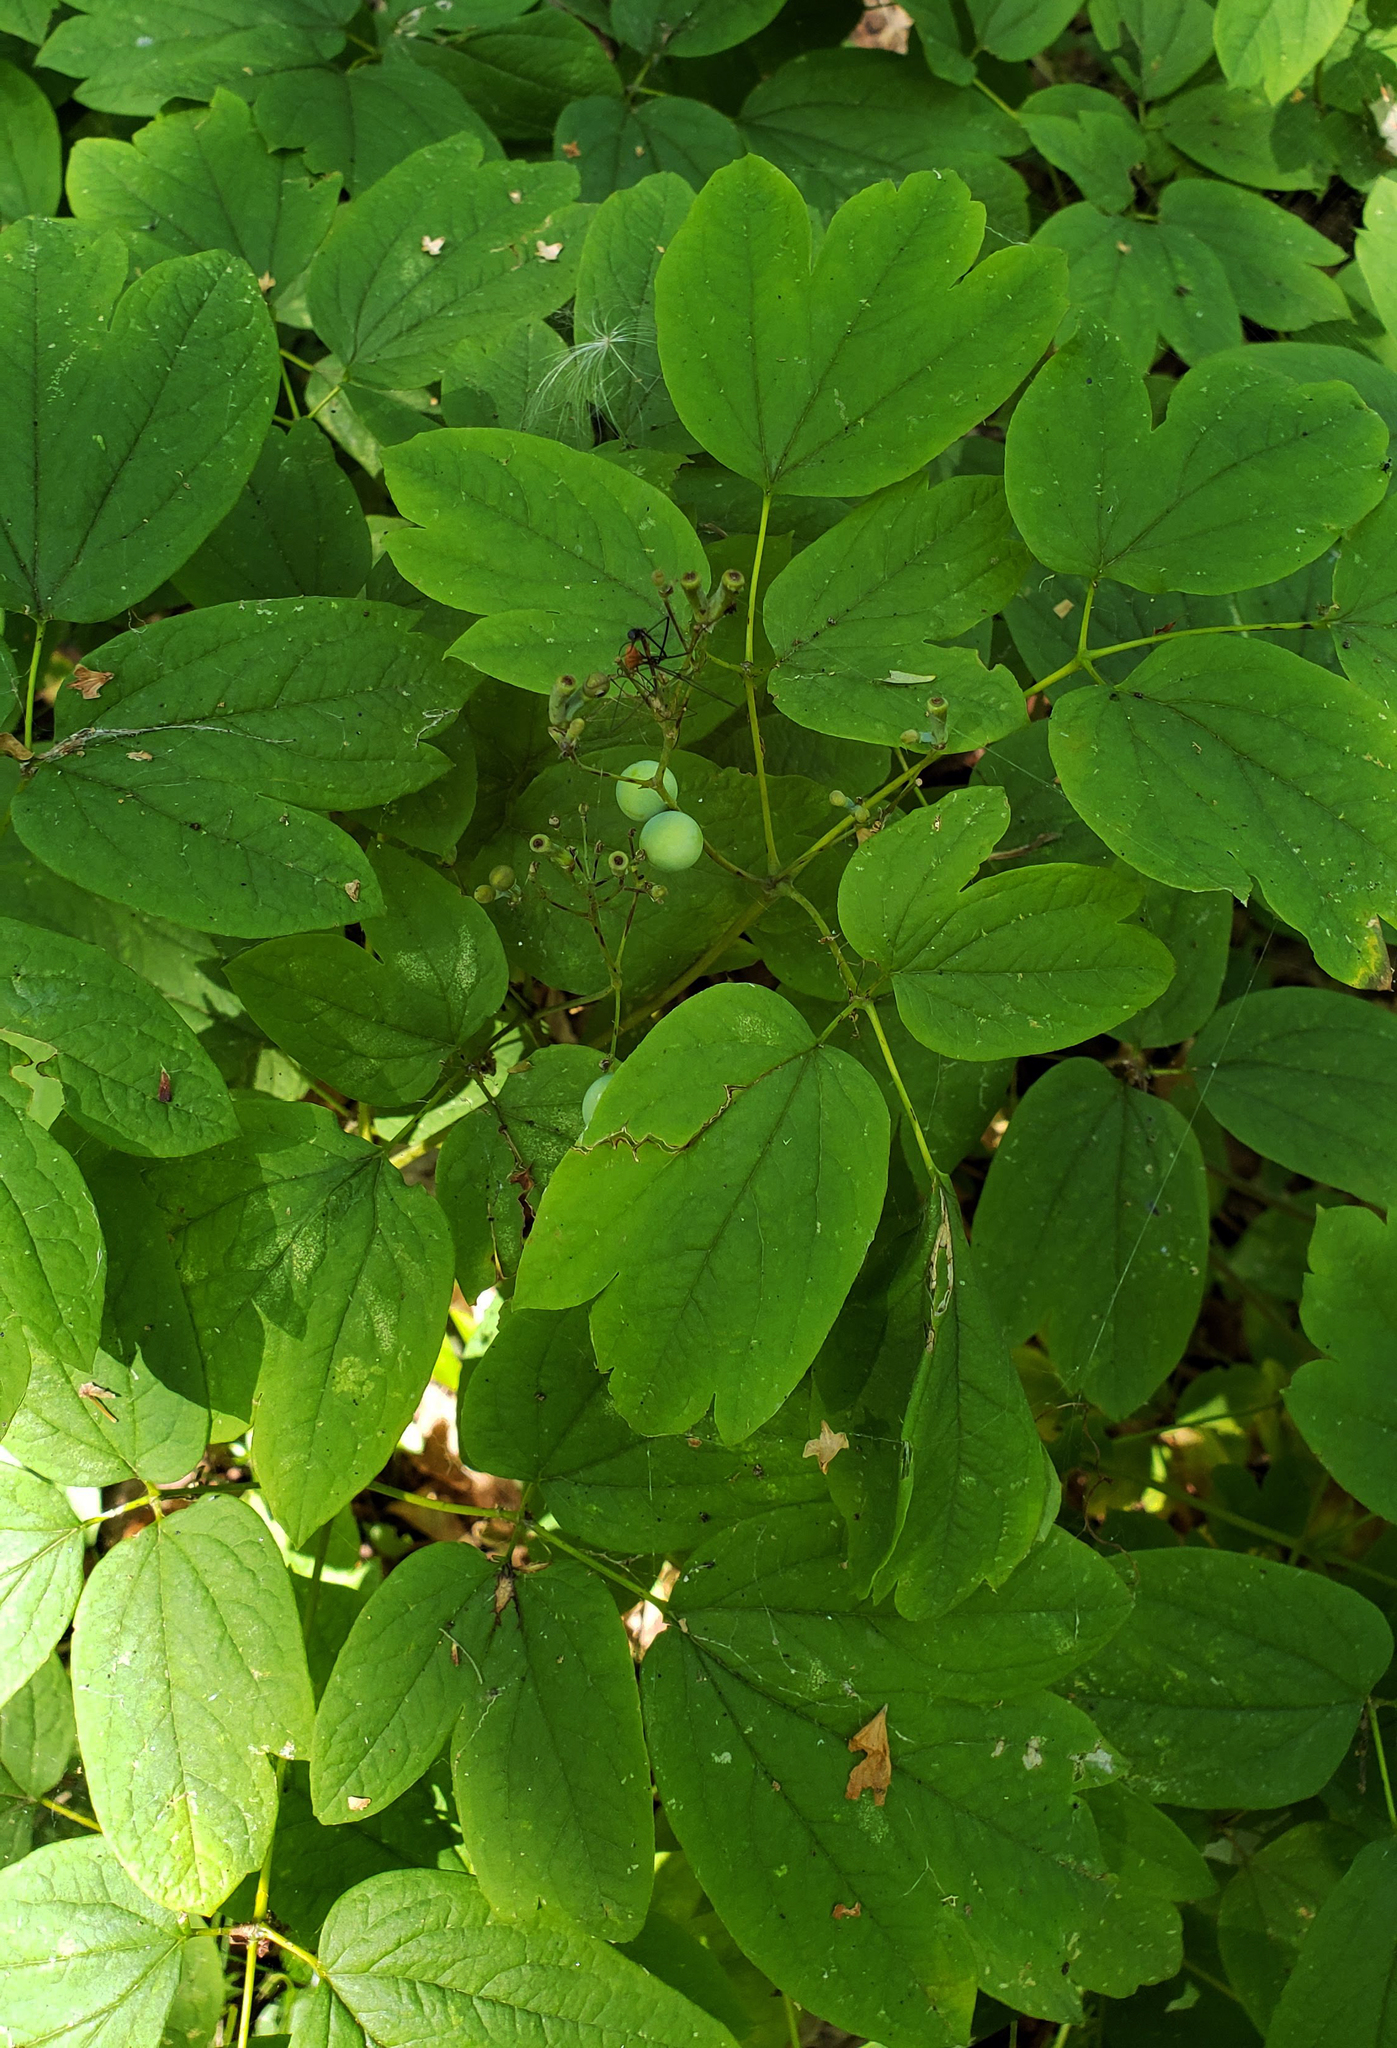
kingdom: Plantae
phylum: Tracheophyta
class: Magnoliopsida
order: Ranunculales
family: Berberidaceae
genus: Caulophyllum
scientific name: Caulophyllum thalictroides
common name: Blue cohosh
